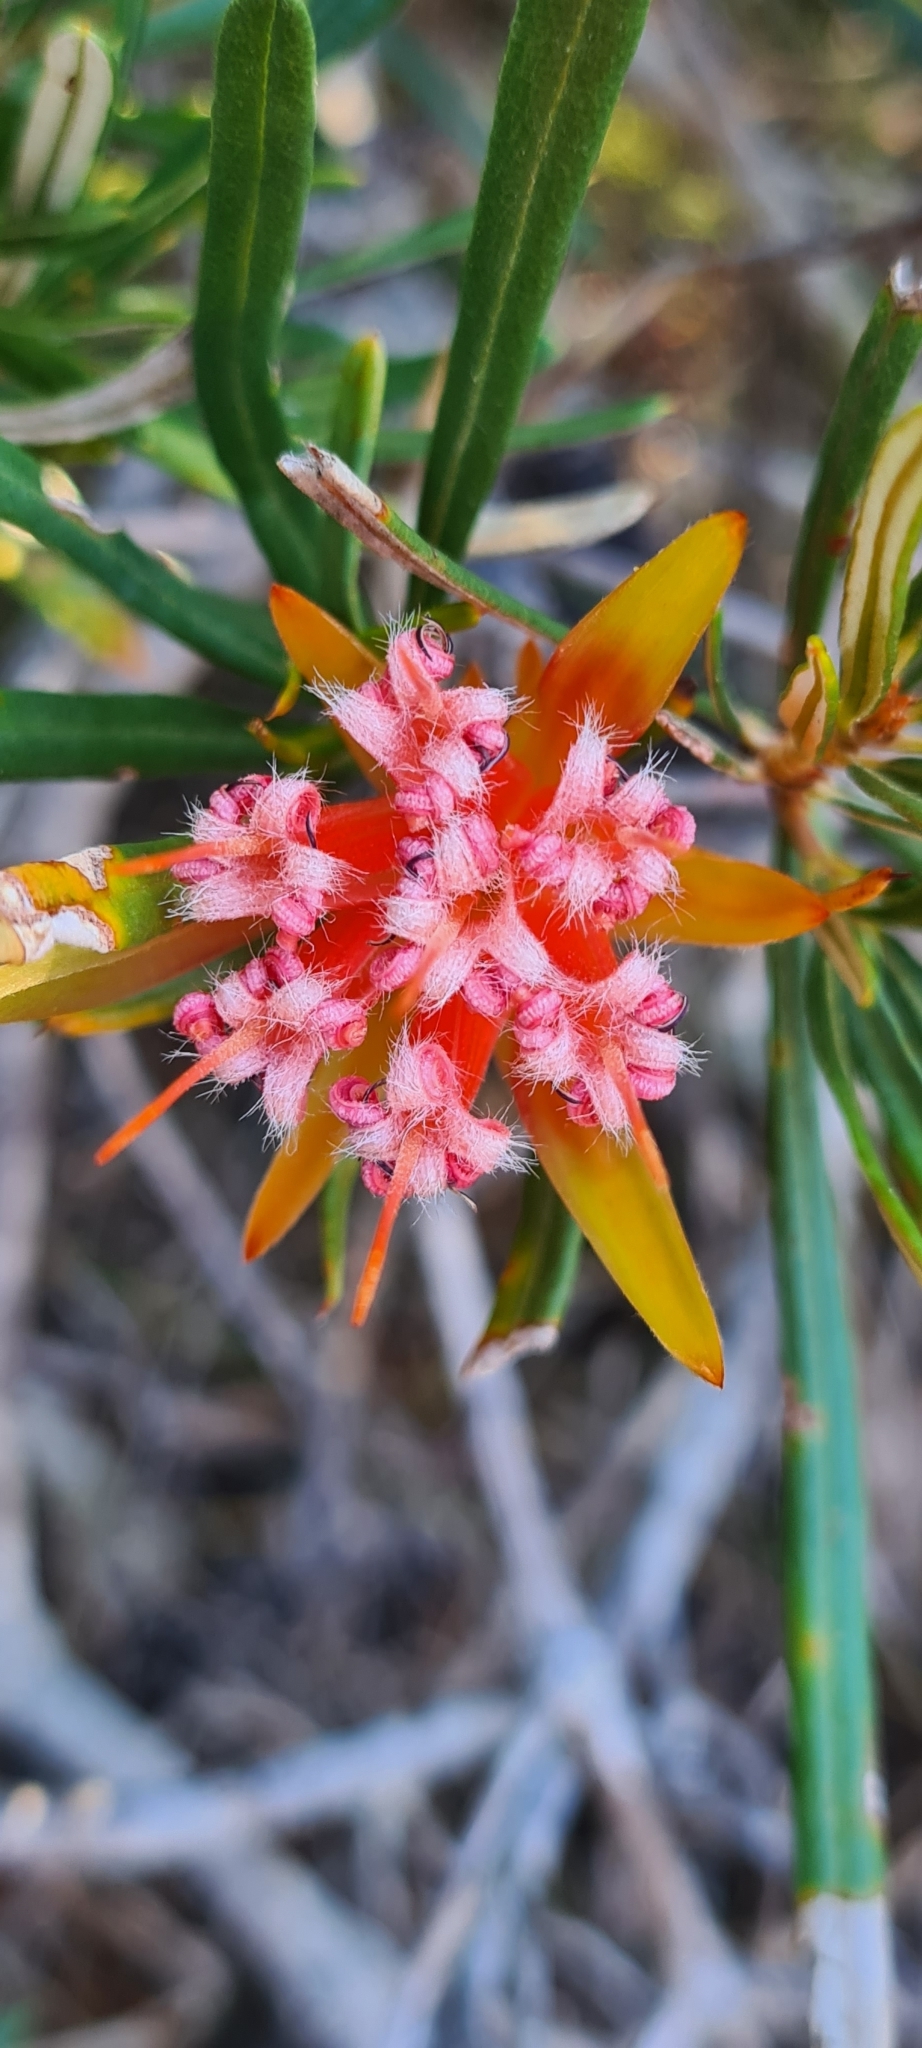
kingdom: Plantae
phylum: Tracheophyta
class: Magnoliopsida
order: Proteales
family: Proteaceae
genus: Lambertia
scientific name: Lambertia formosa
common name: Mountain-devil
